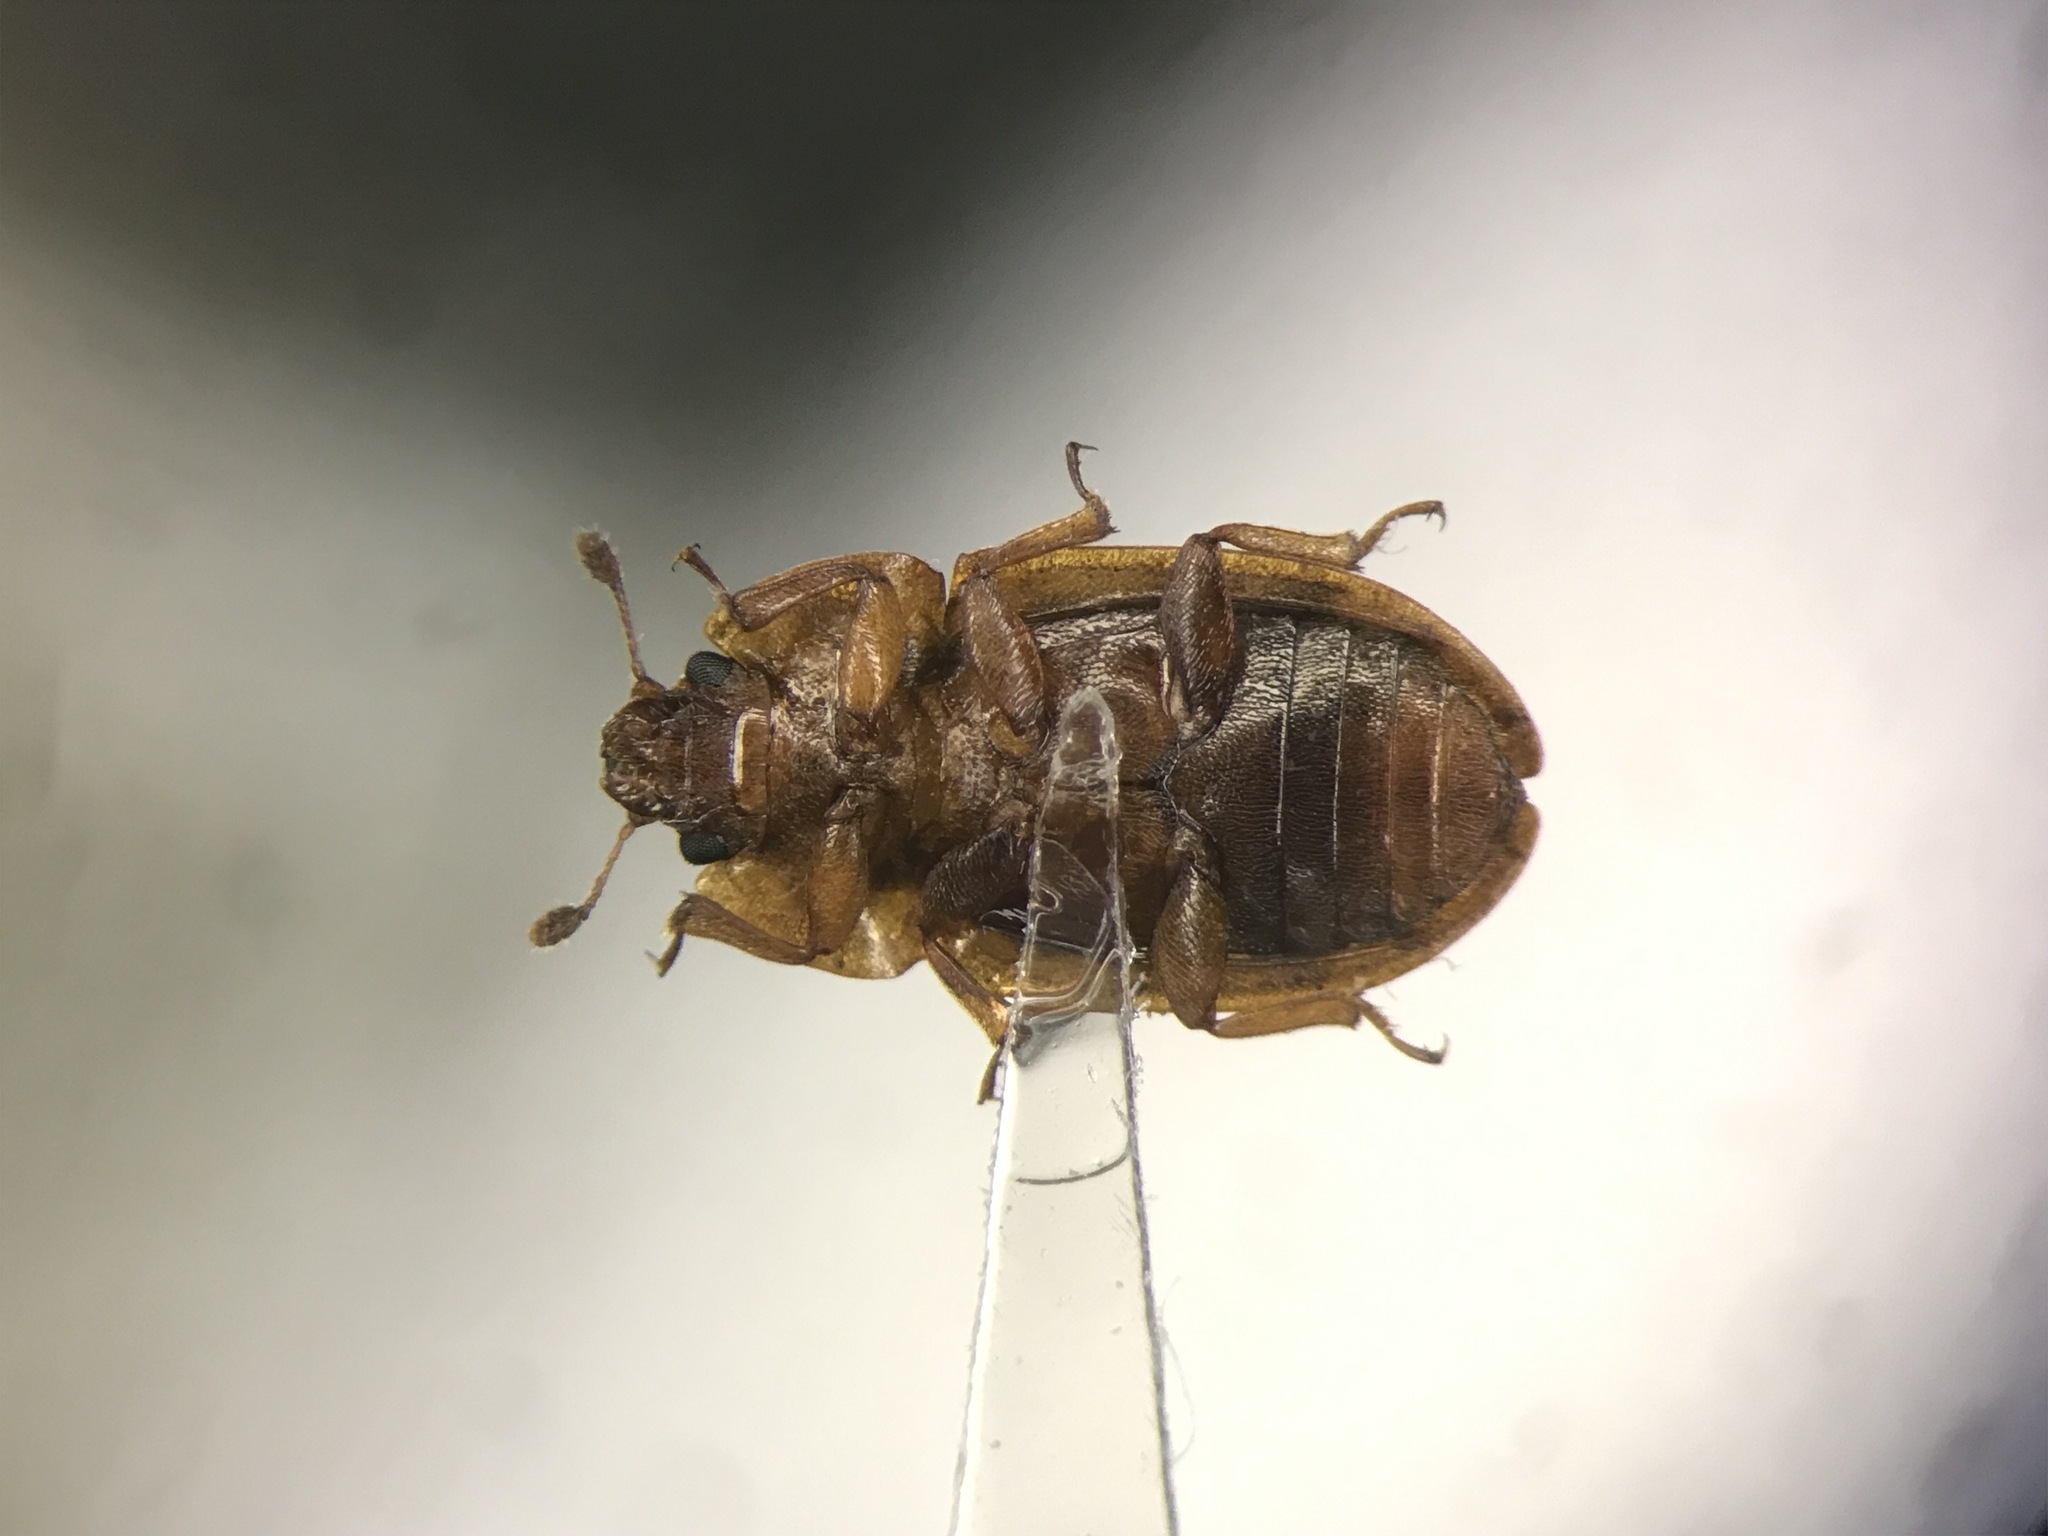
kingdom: Animalia
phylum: Arthropoda
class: Insecta
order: Coleoptera
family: Nitidulidae
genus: Soronia
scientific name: Soronia grisea
